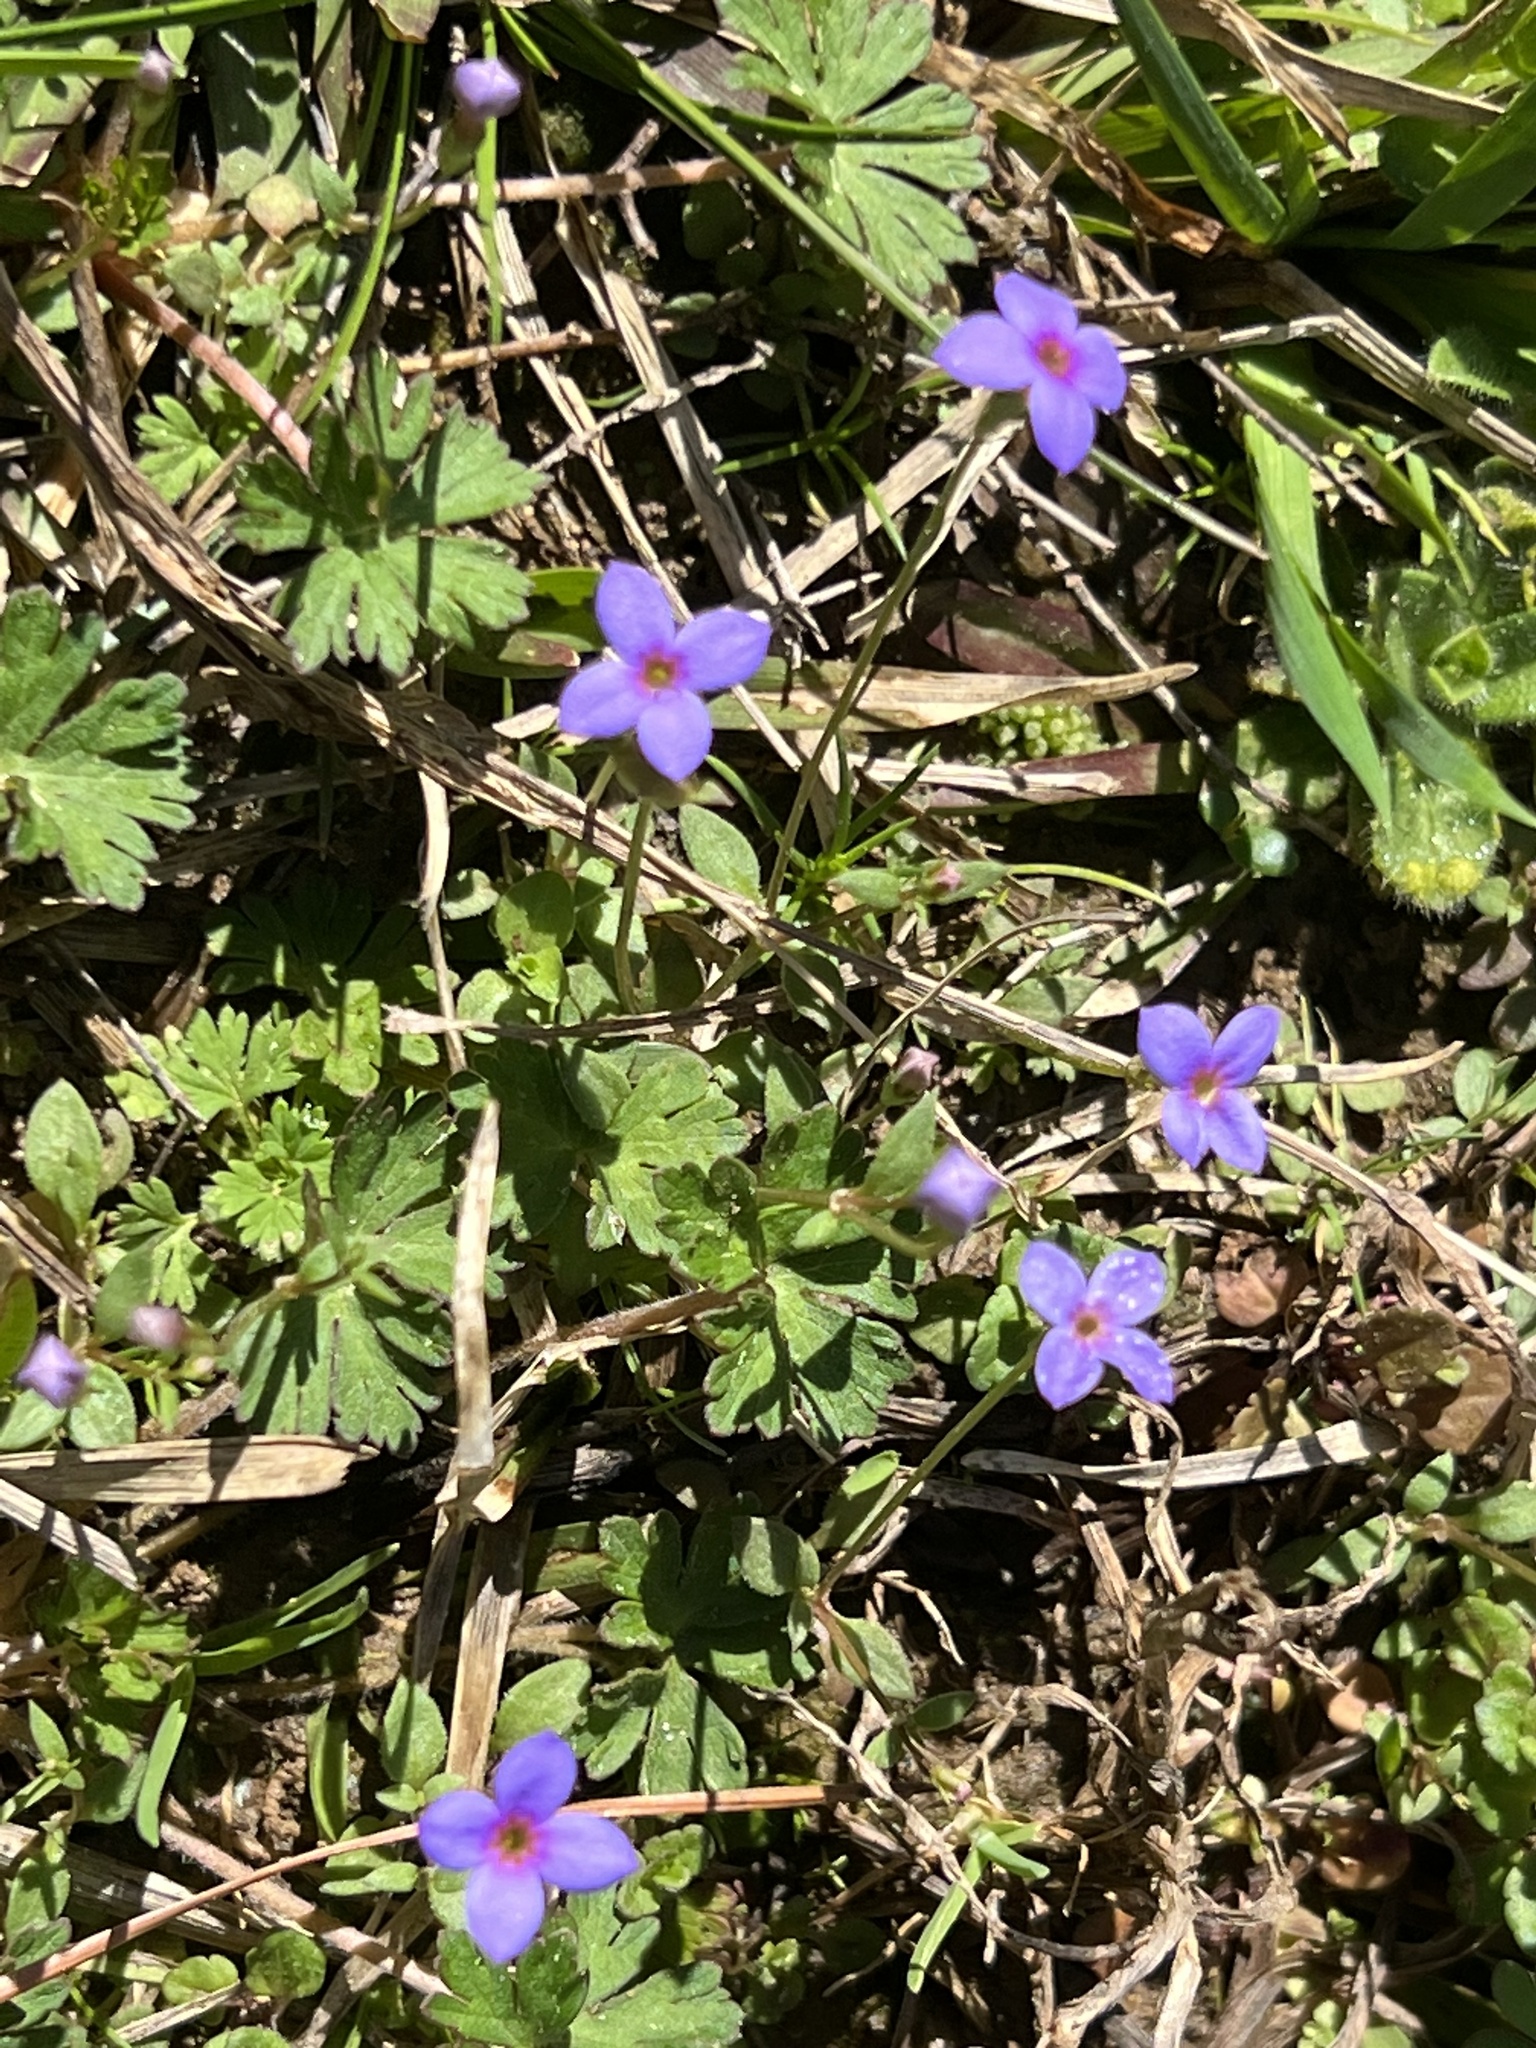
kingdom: Plantae
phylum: Tracheophyta
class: Magnoliopsida
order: Gentianales
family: Rubiaceae
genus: Houstonia
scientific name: Houstonia pusilla
